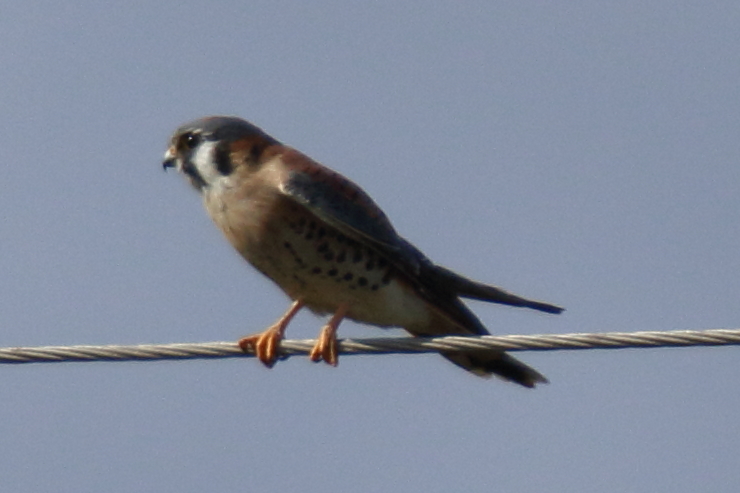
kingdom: Animalia
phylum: Chordata
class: Aves
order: Falconiformes
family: Falconidae
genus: Falco
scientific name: Falco sparverius
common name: American kestrel
